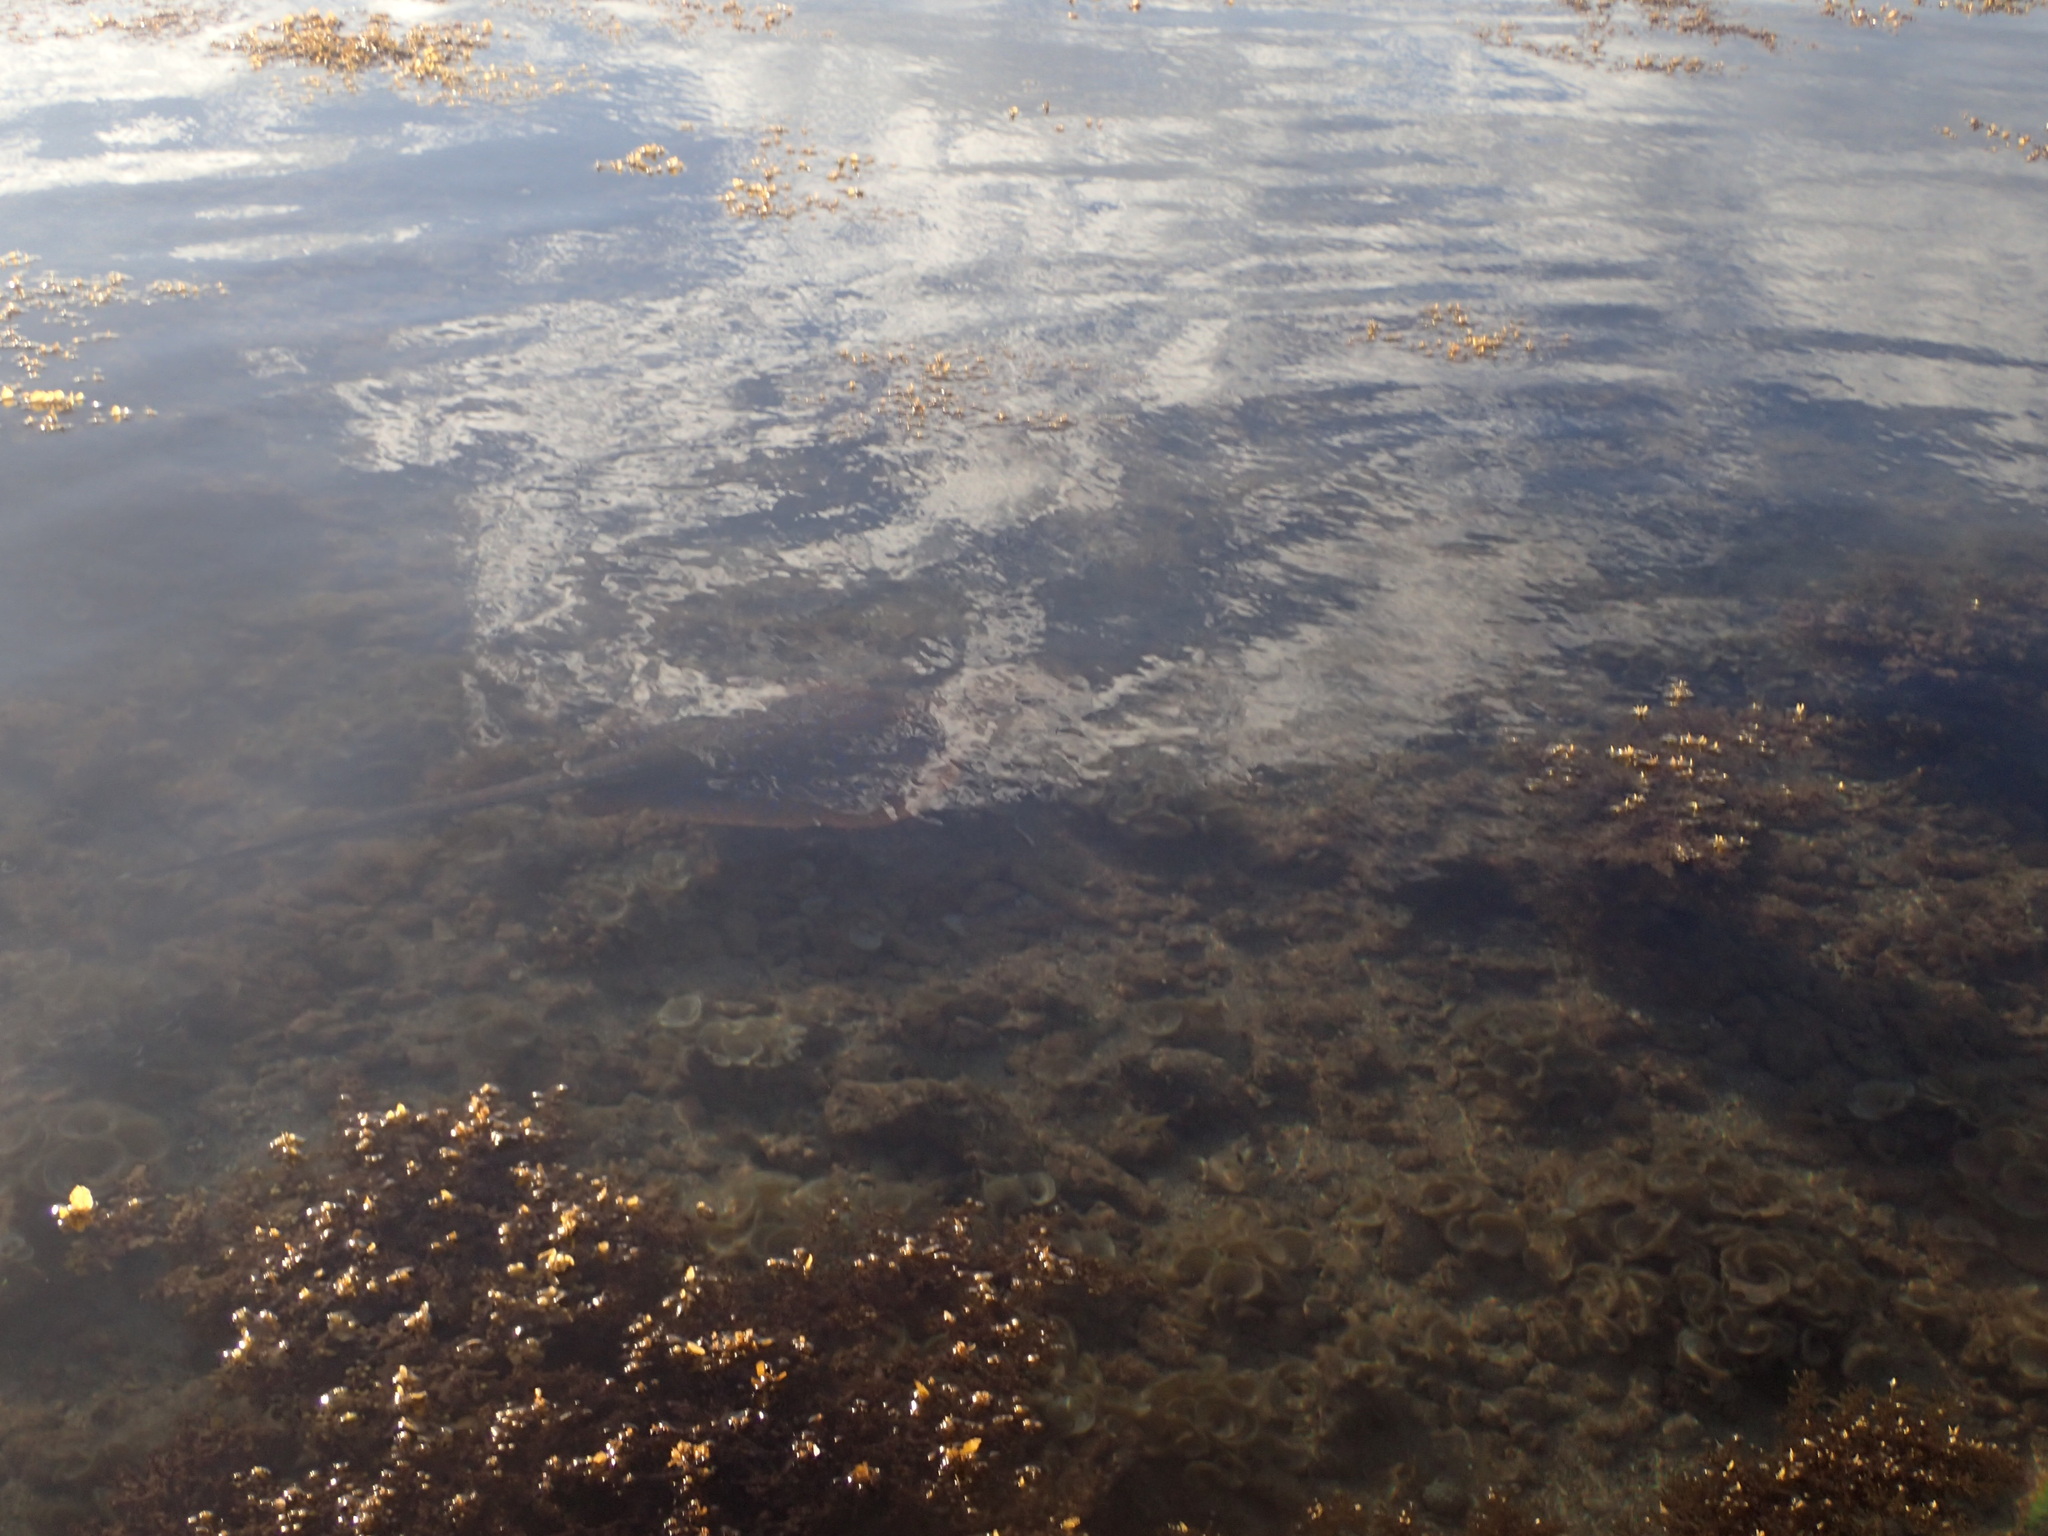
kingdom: Animalia
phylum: Chordata
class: Elasmobranchii
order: Myliobatiformes
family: Dasyatidae
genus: Taeniura
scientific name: Taeniura lymma
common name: Bluespotted ribbontail ray
